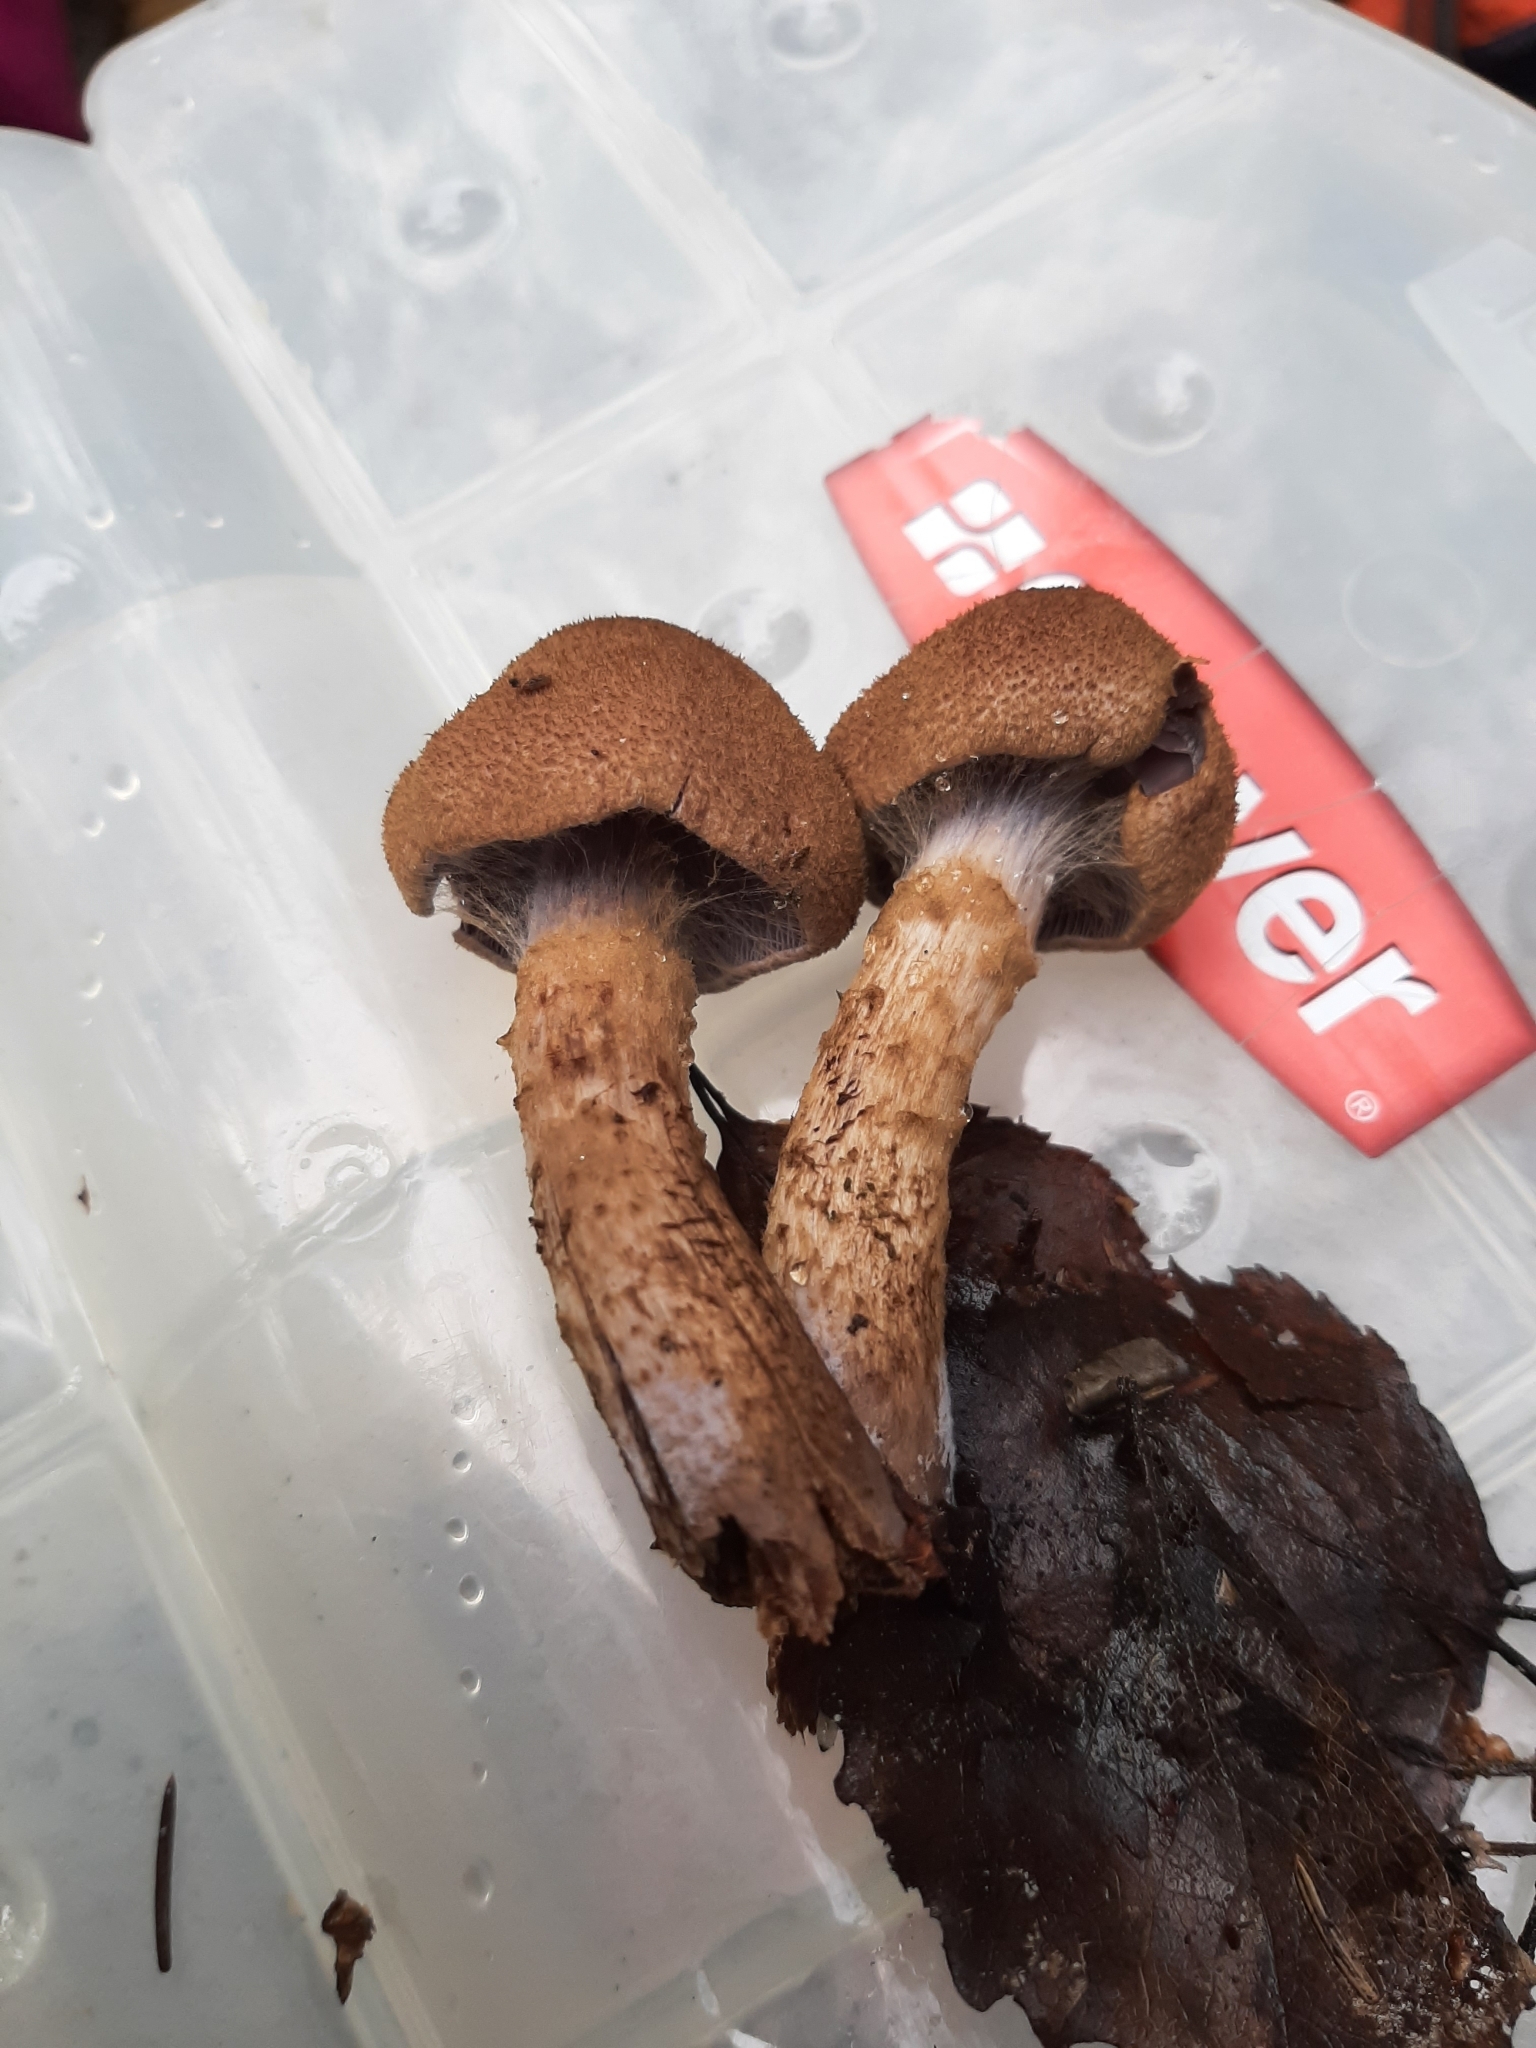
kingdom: Fungi
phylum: Basidiomycota
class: Agaricomycetes
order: Agaricales
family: Cortinariaceae
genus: Cortinarius
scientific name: Cortinarius pholideus
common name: Scaly webcap
